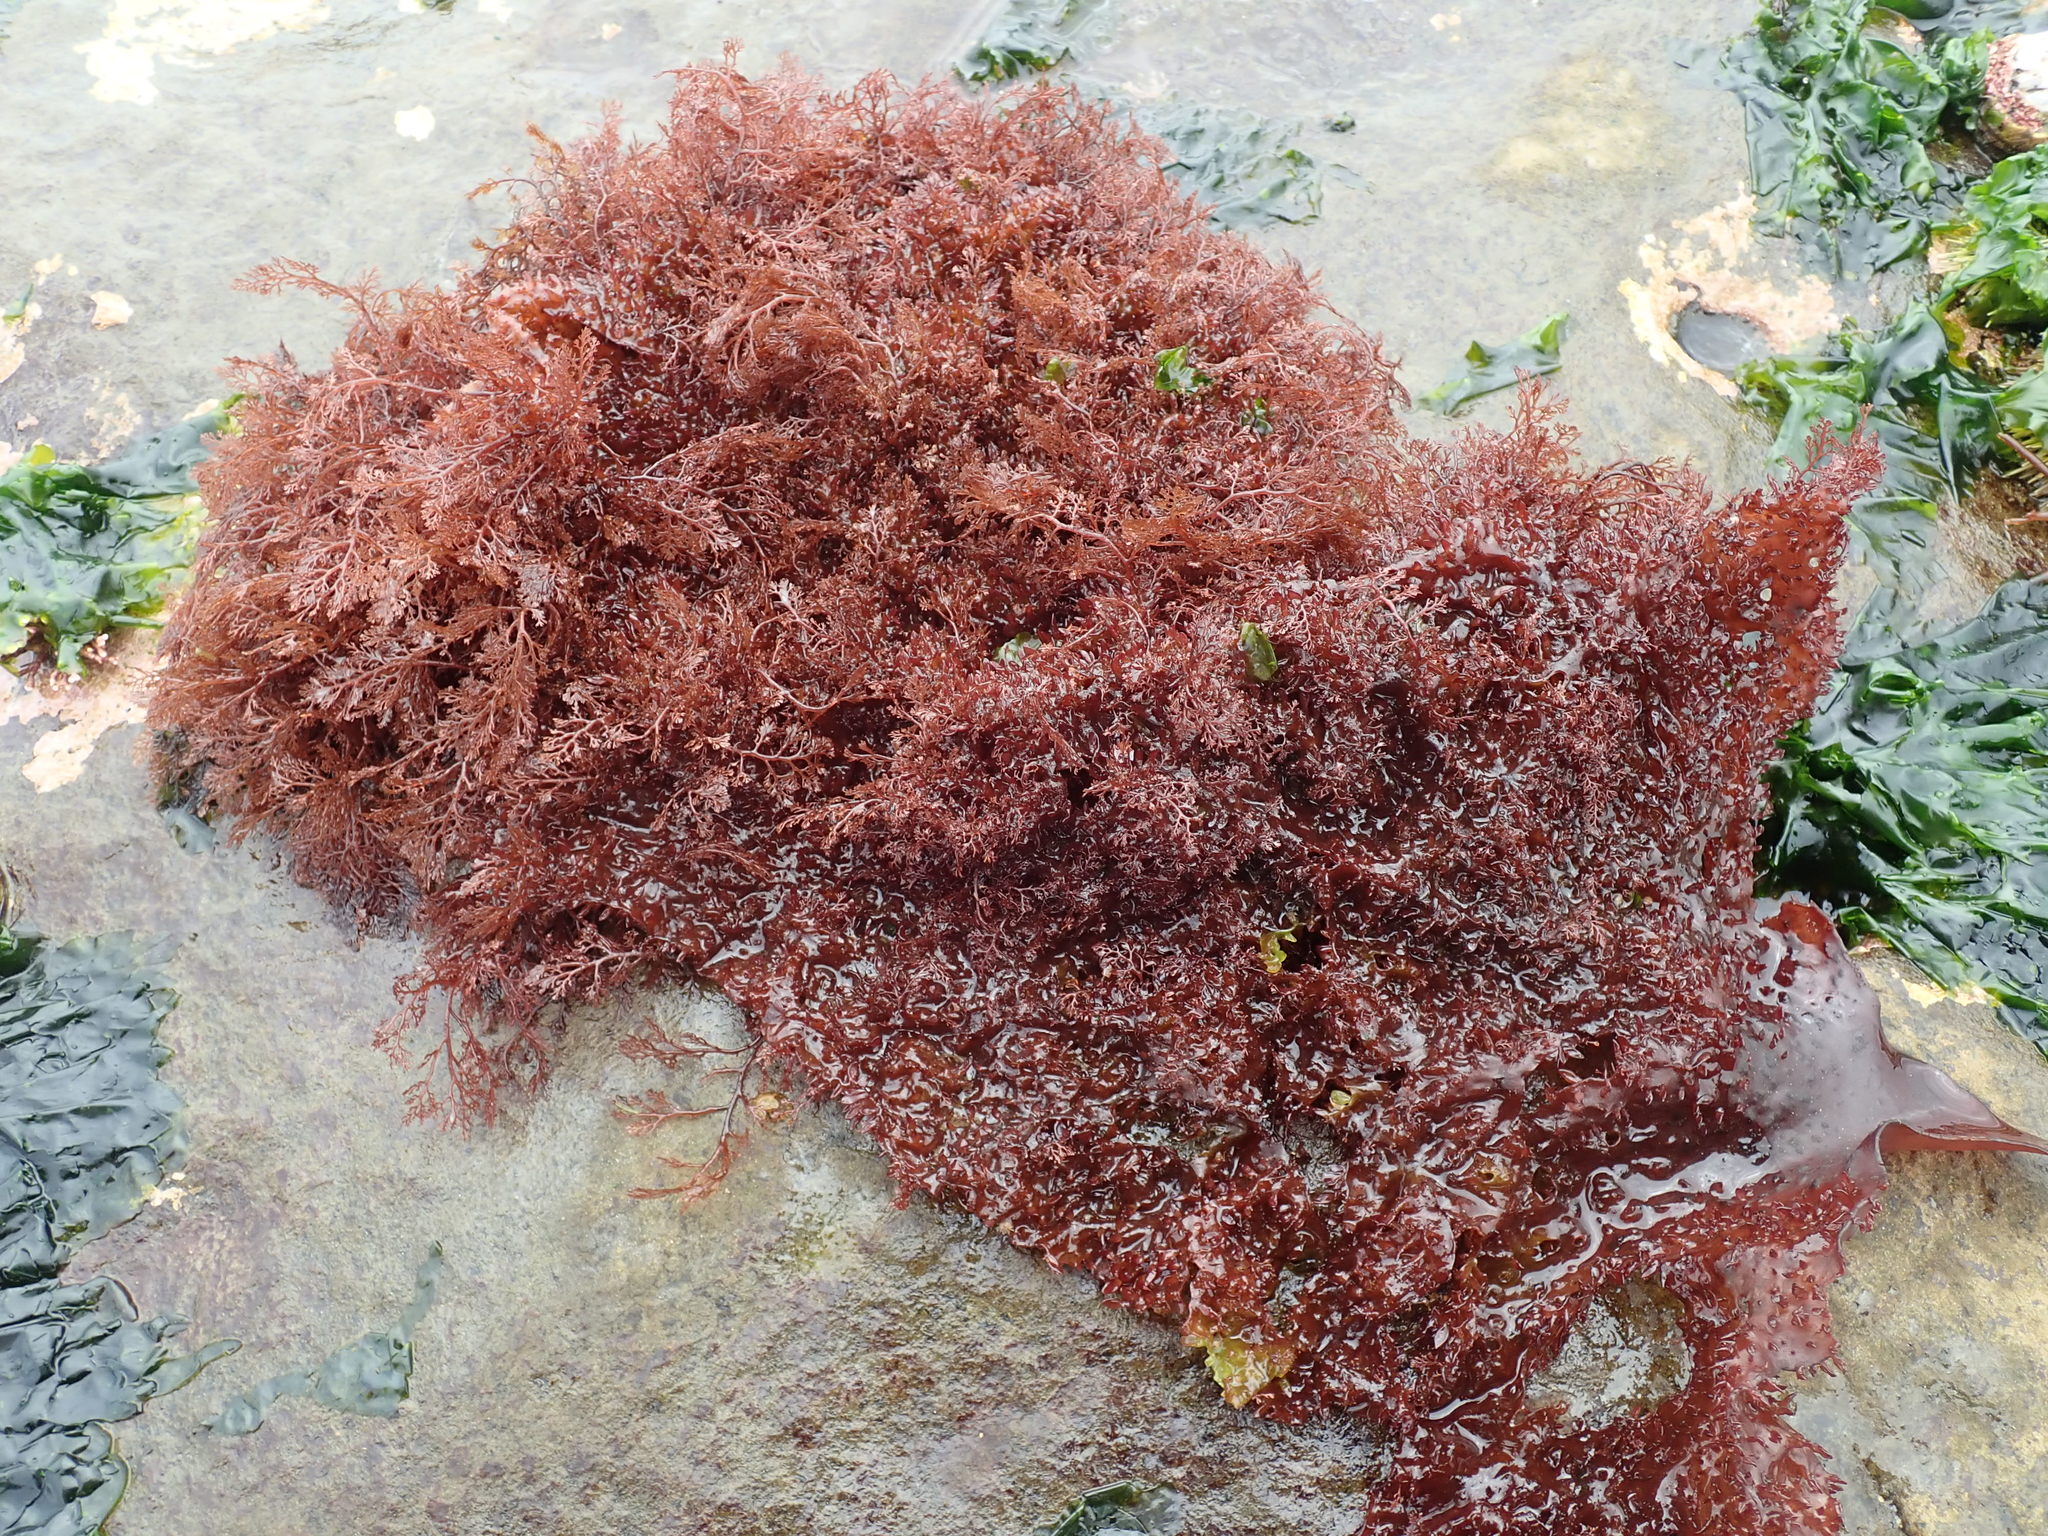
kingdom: Plantae
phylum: Rhodophyta
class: Florideophyceae
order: Ceramiales
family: Ceramiaceae
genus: Microcladia
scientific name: Microcladia coulteri
